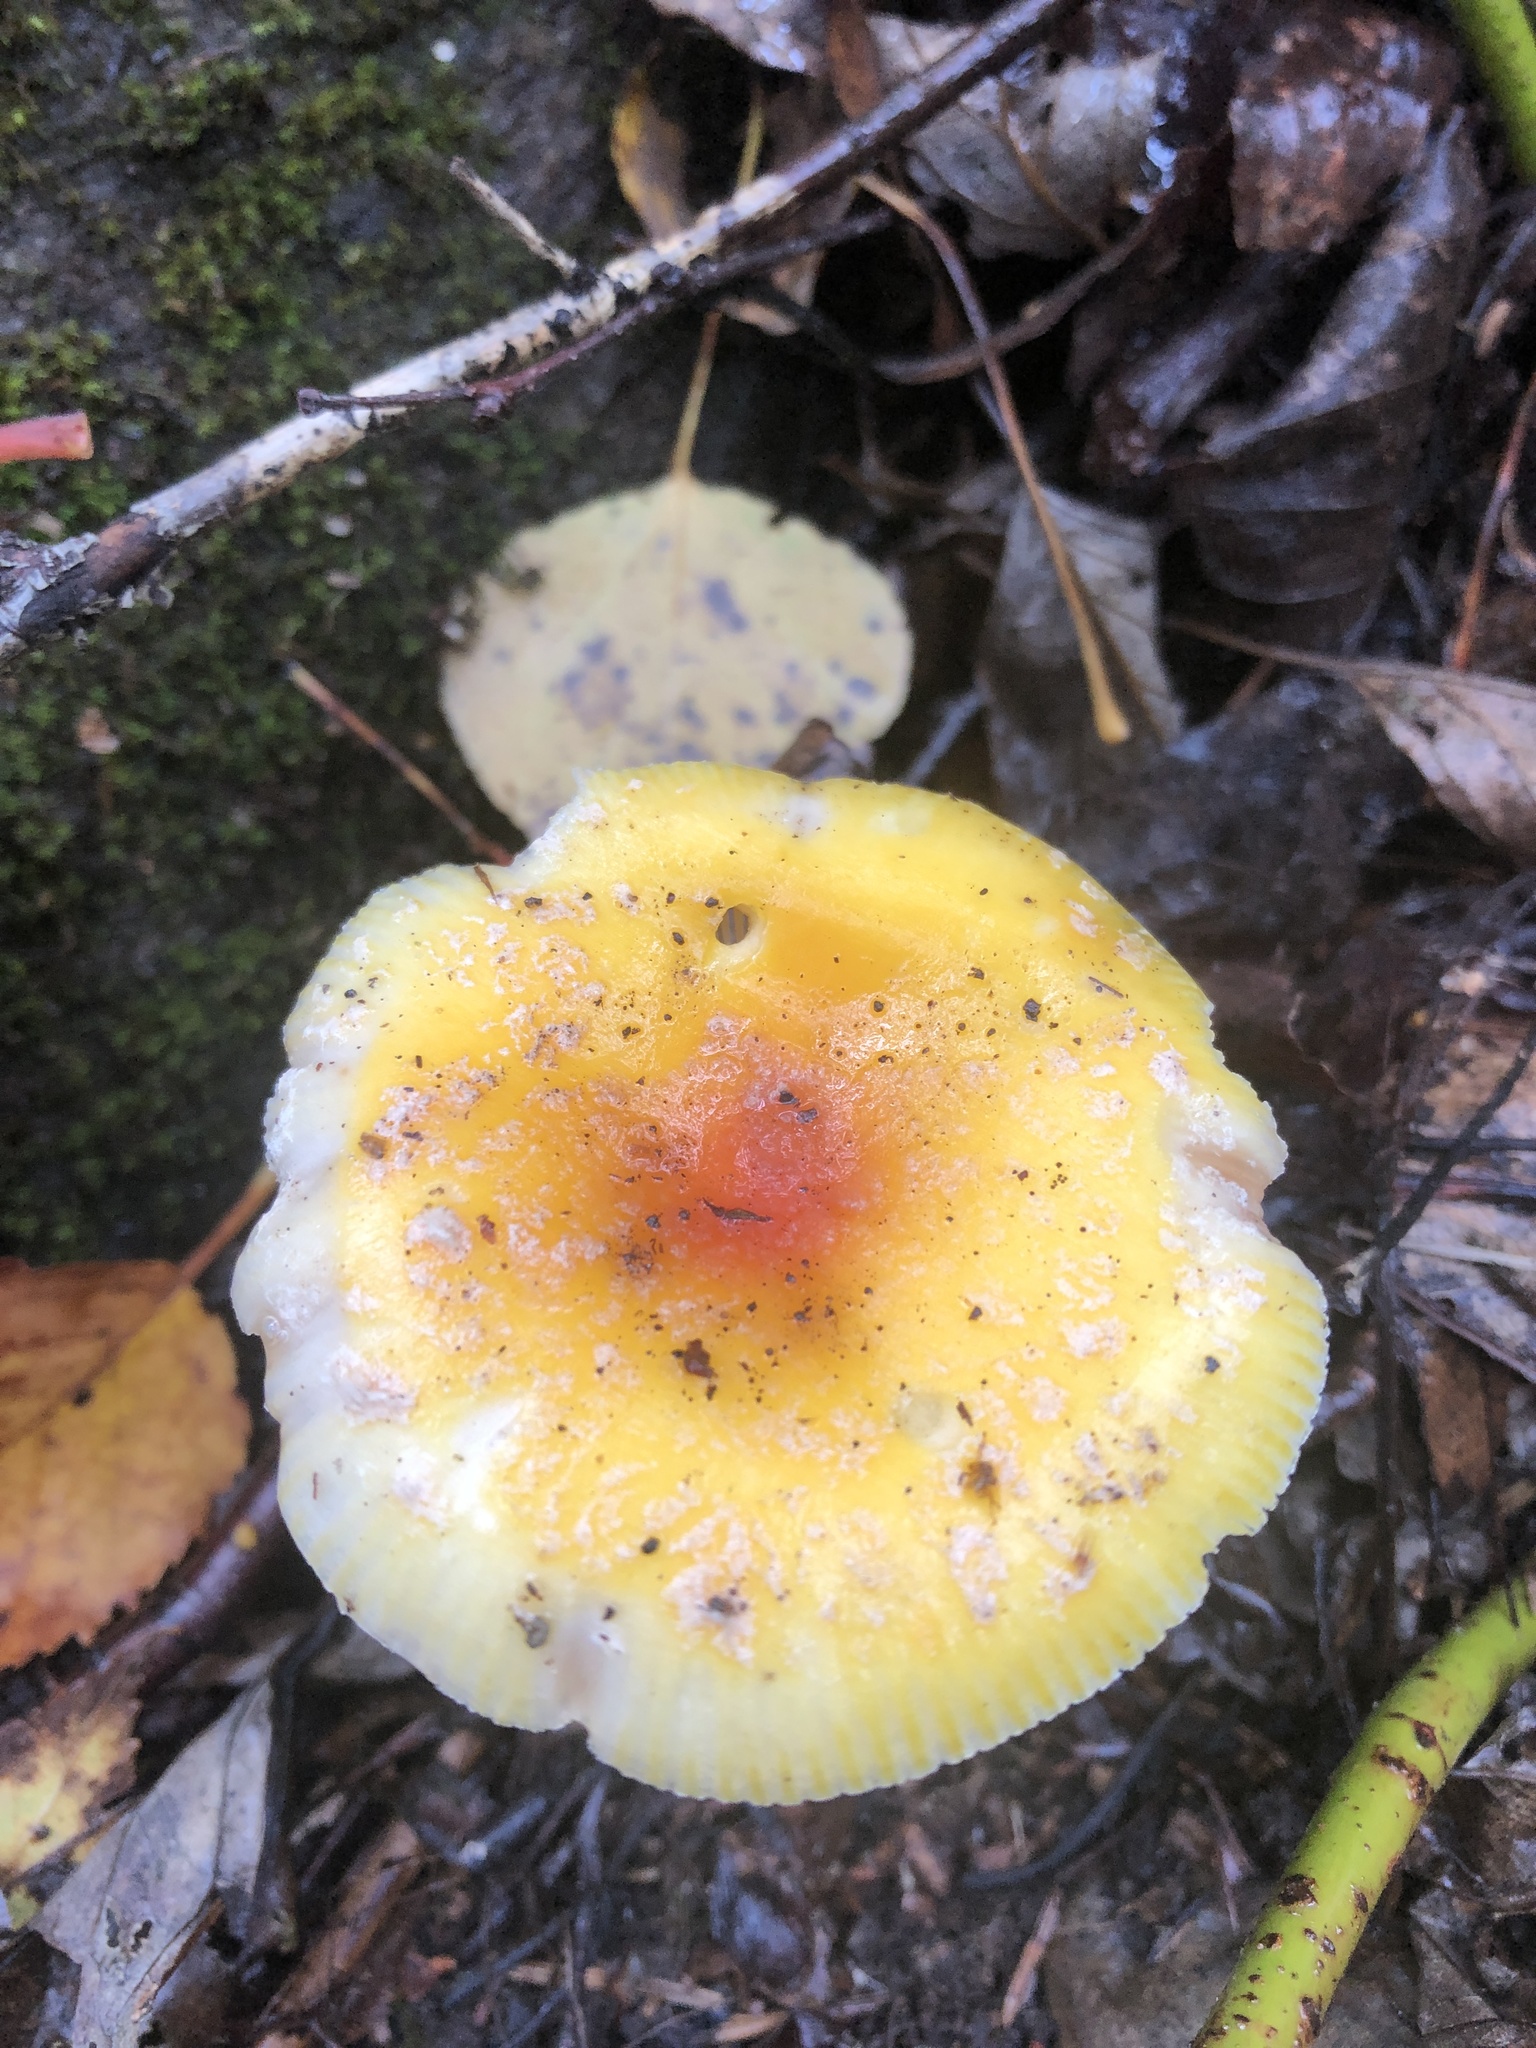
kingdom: Fungi
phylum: Basidiomycota
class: Agaricomycetes
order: Agaricales
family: Amanitaceae
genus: Amanita
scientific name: Amanita frostiana
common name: Frost's amanita
